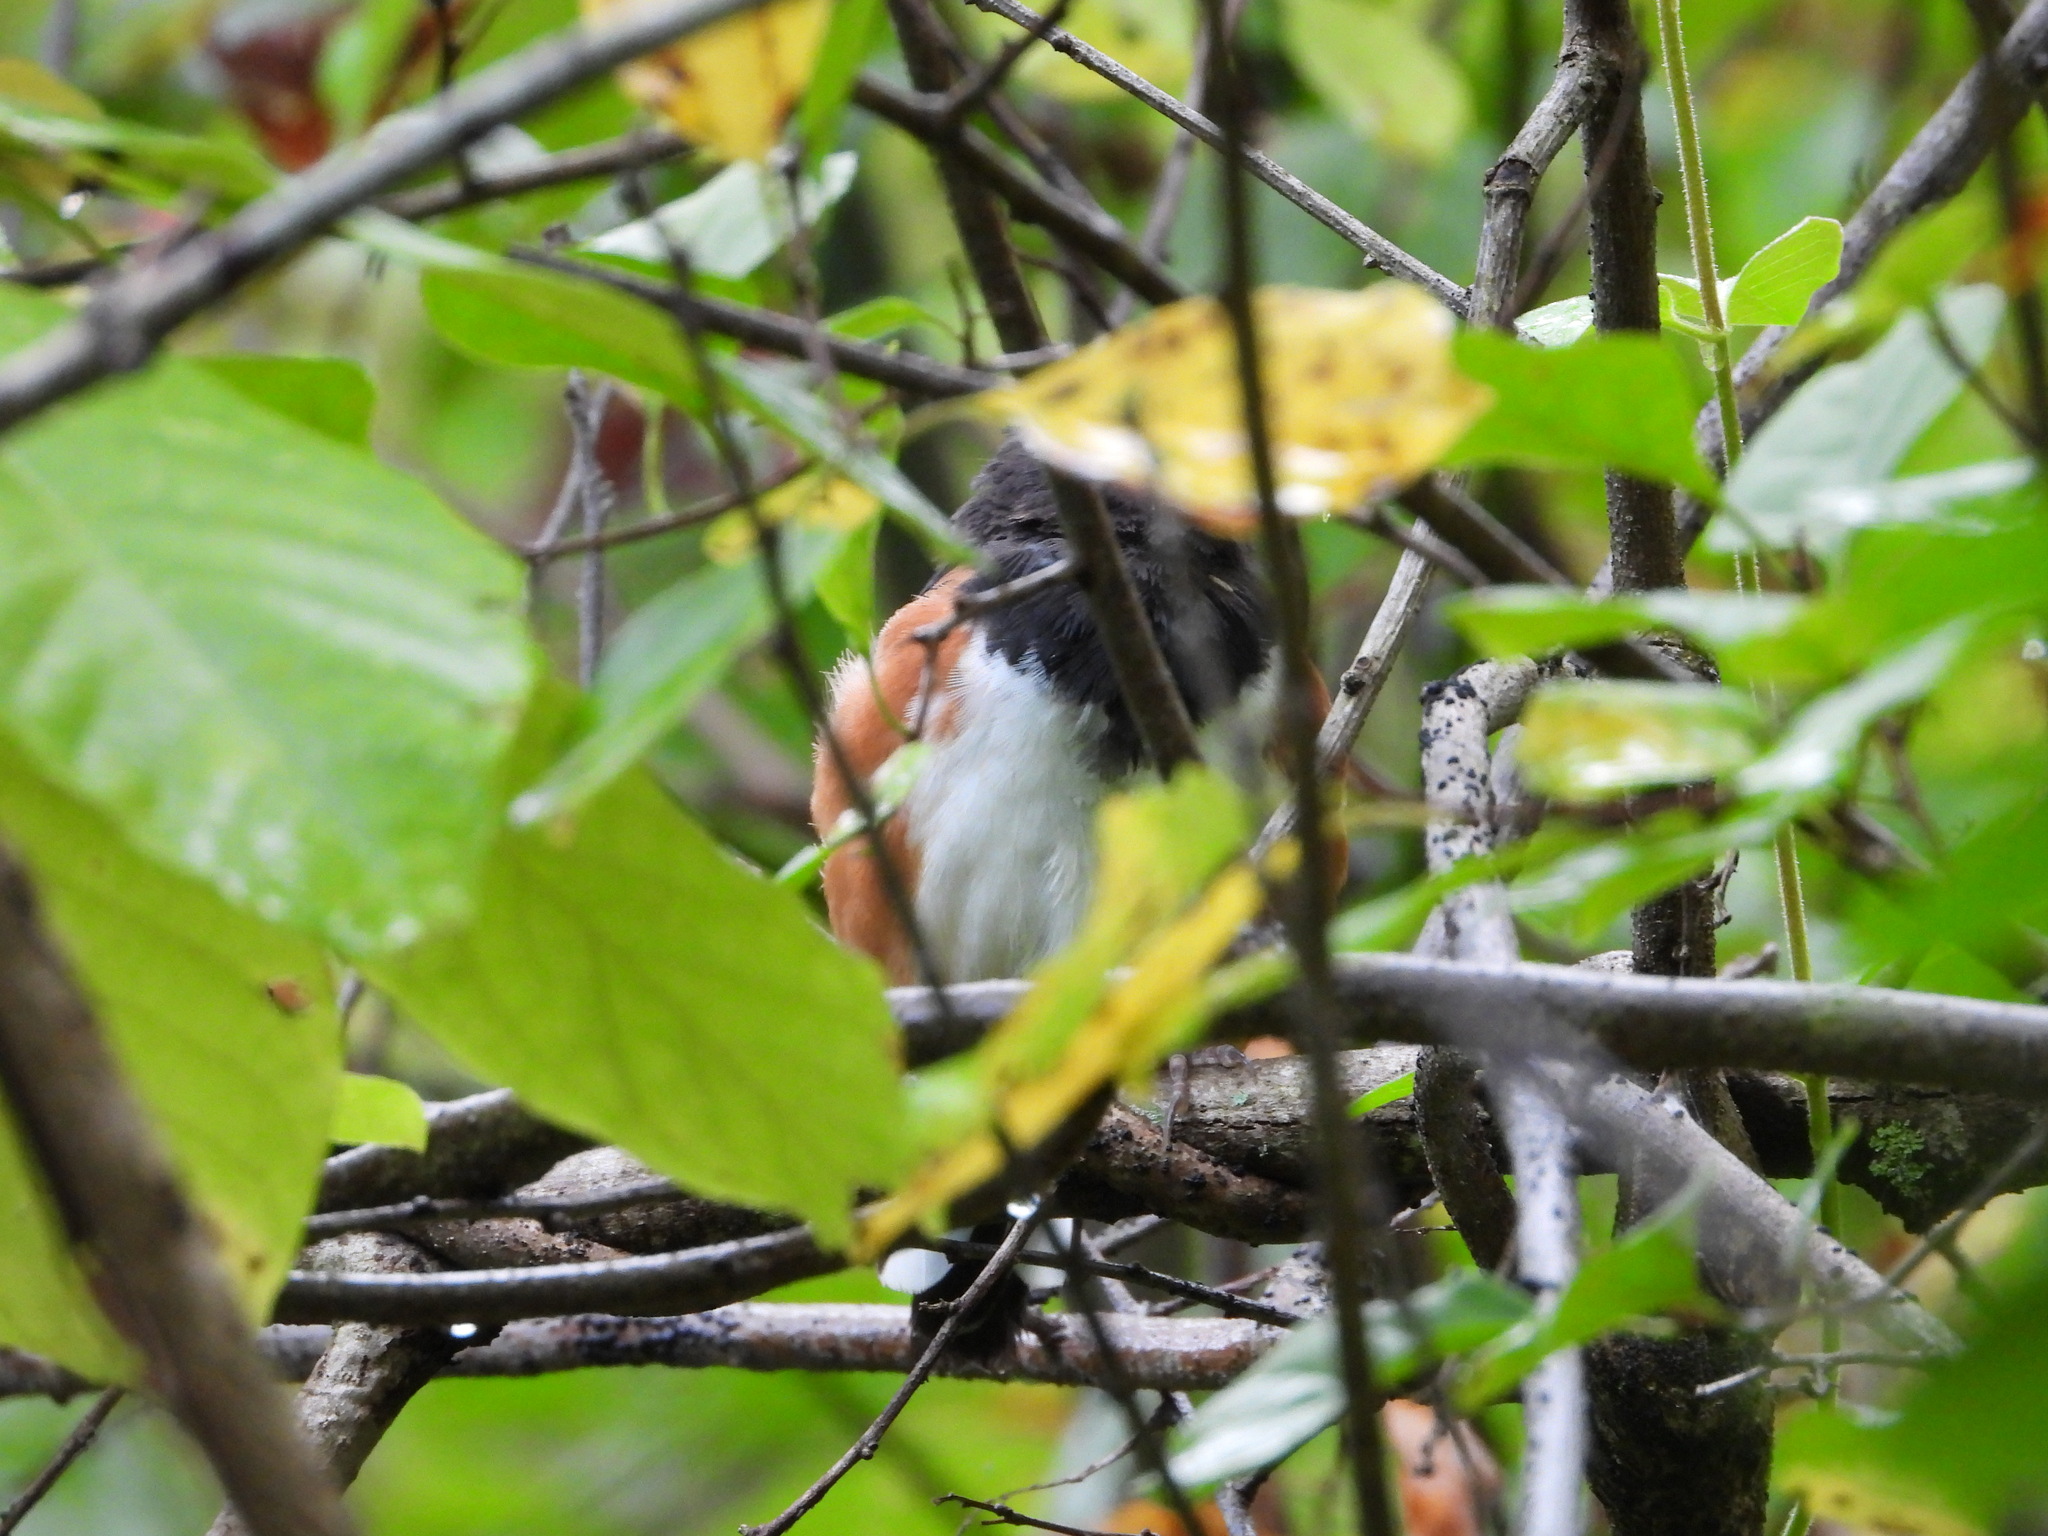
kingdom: Animalia
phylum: Chordata
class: Aves
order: Passeriformes
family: Passerellidae
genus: Pipilo
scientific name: Pipilo erythrophthalmus
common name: Eastern towhee
